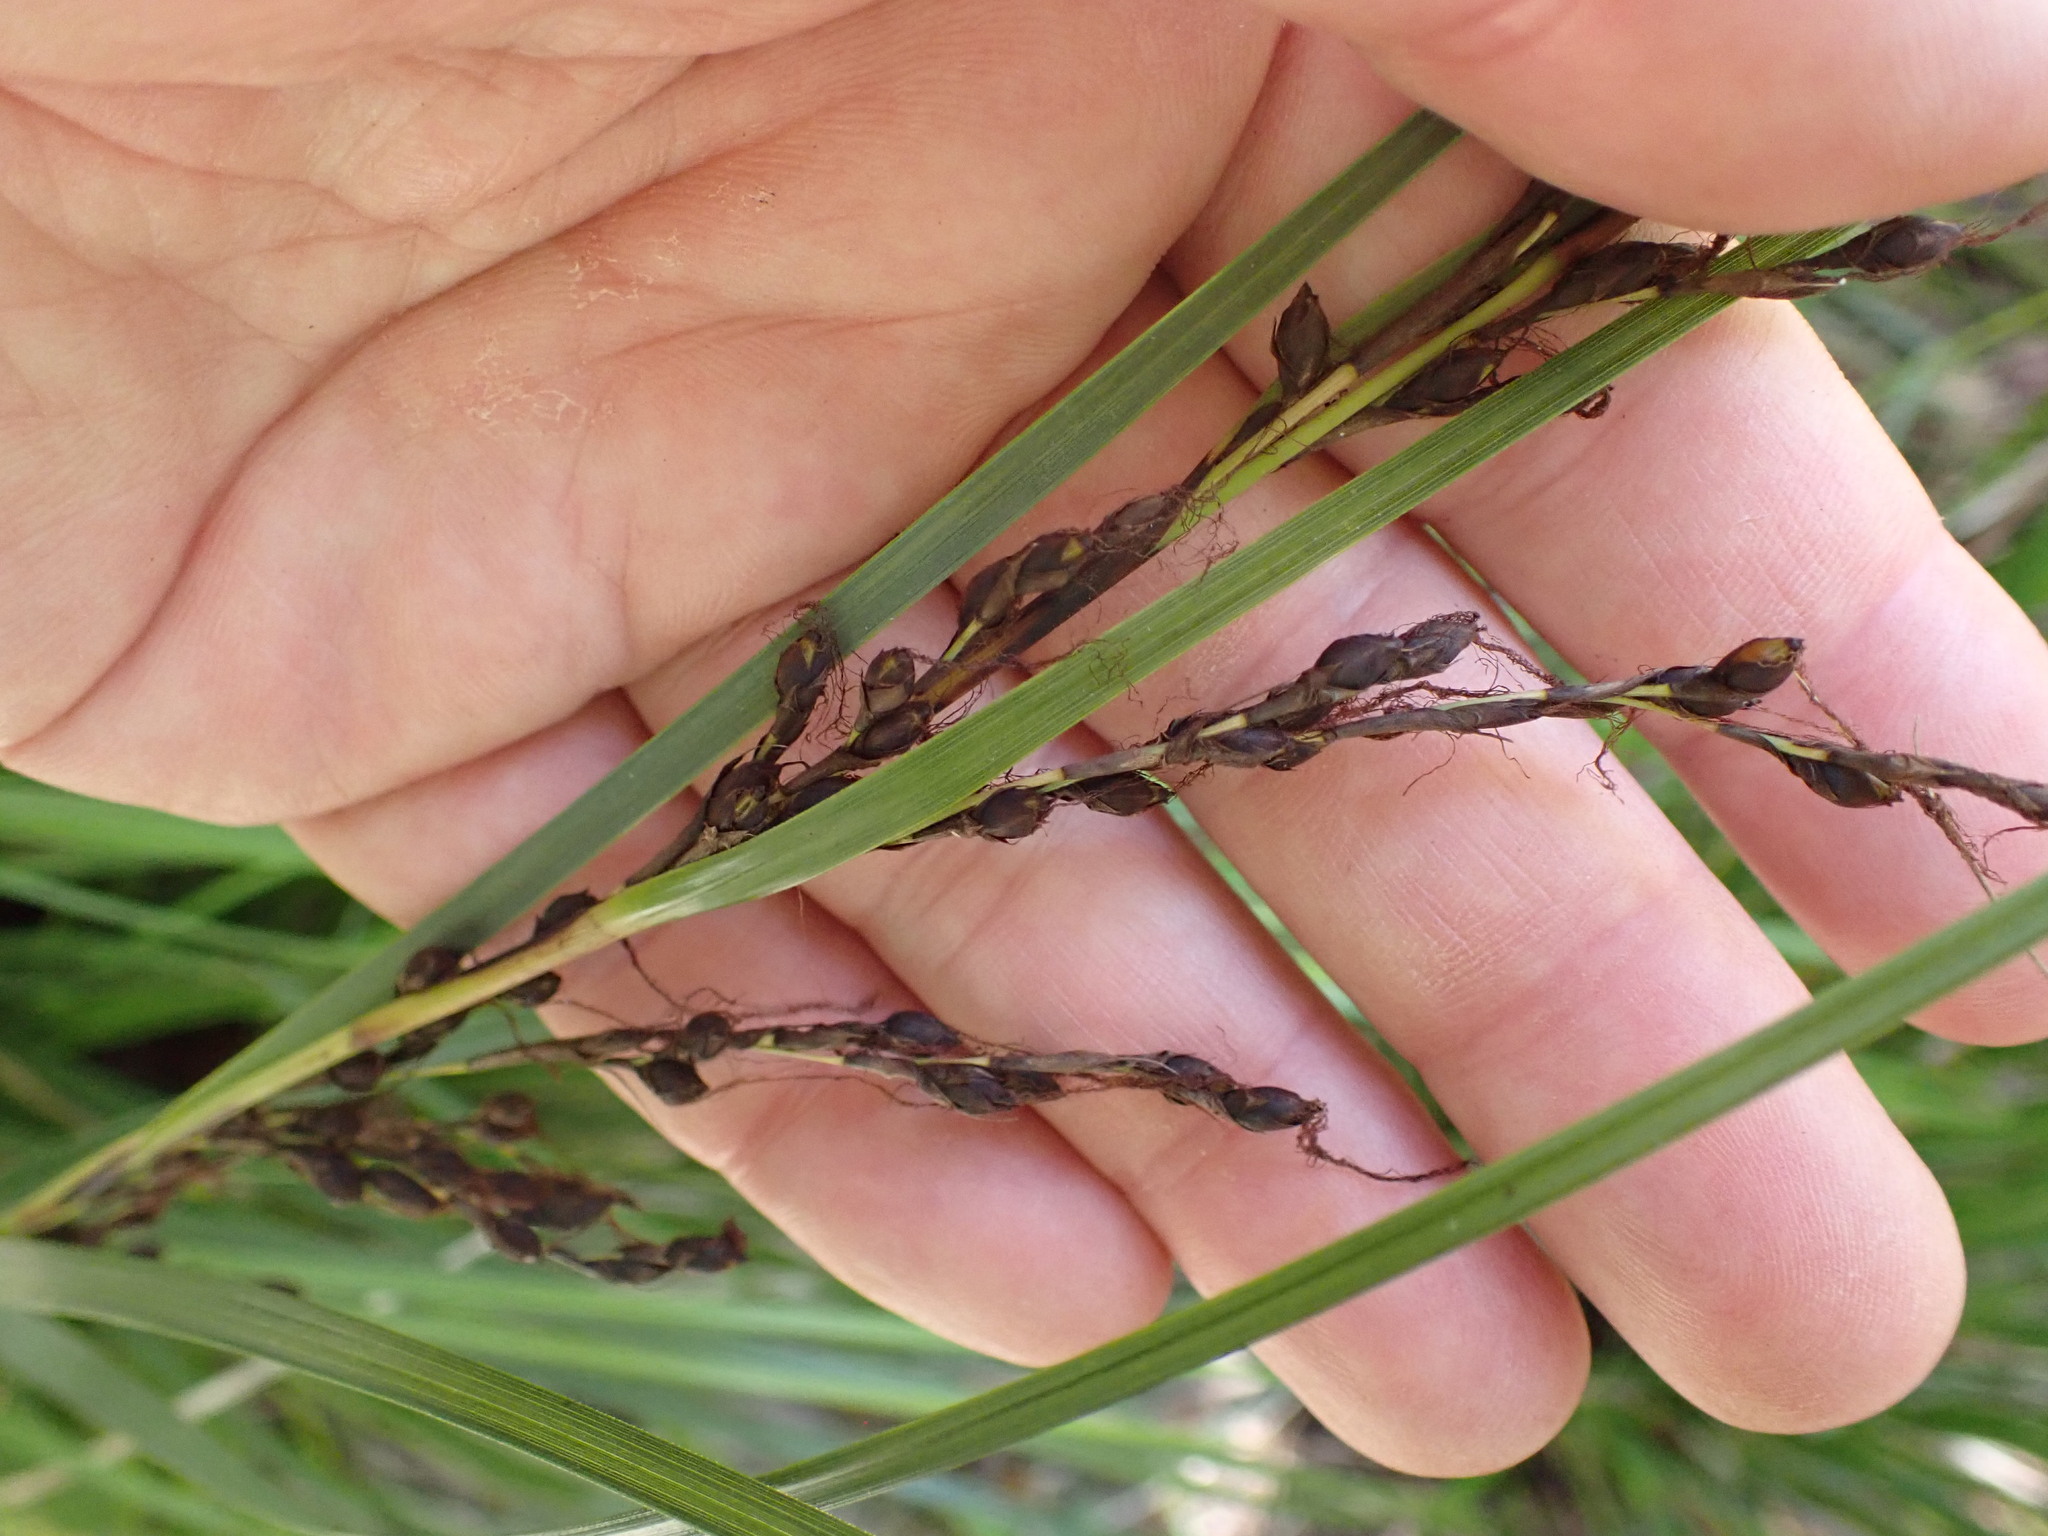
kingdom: Plantae
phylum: Tracheophyta
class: Liliopsida
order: Poales
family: Cyperaceae
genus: Gahnia
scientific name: Gahnia pauciflora
